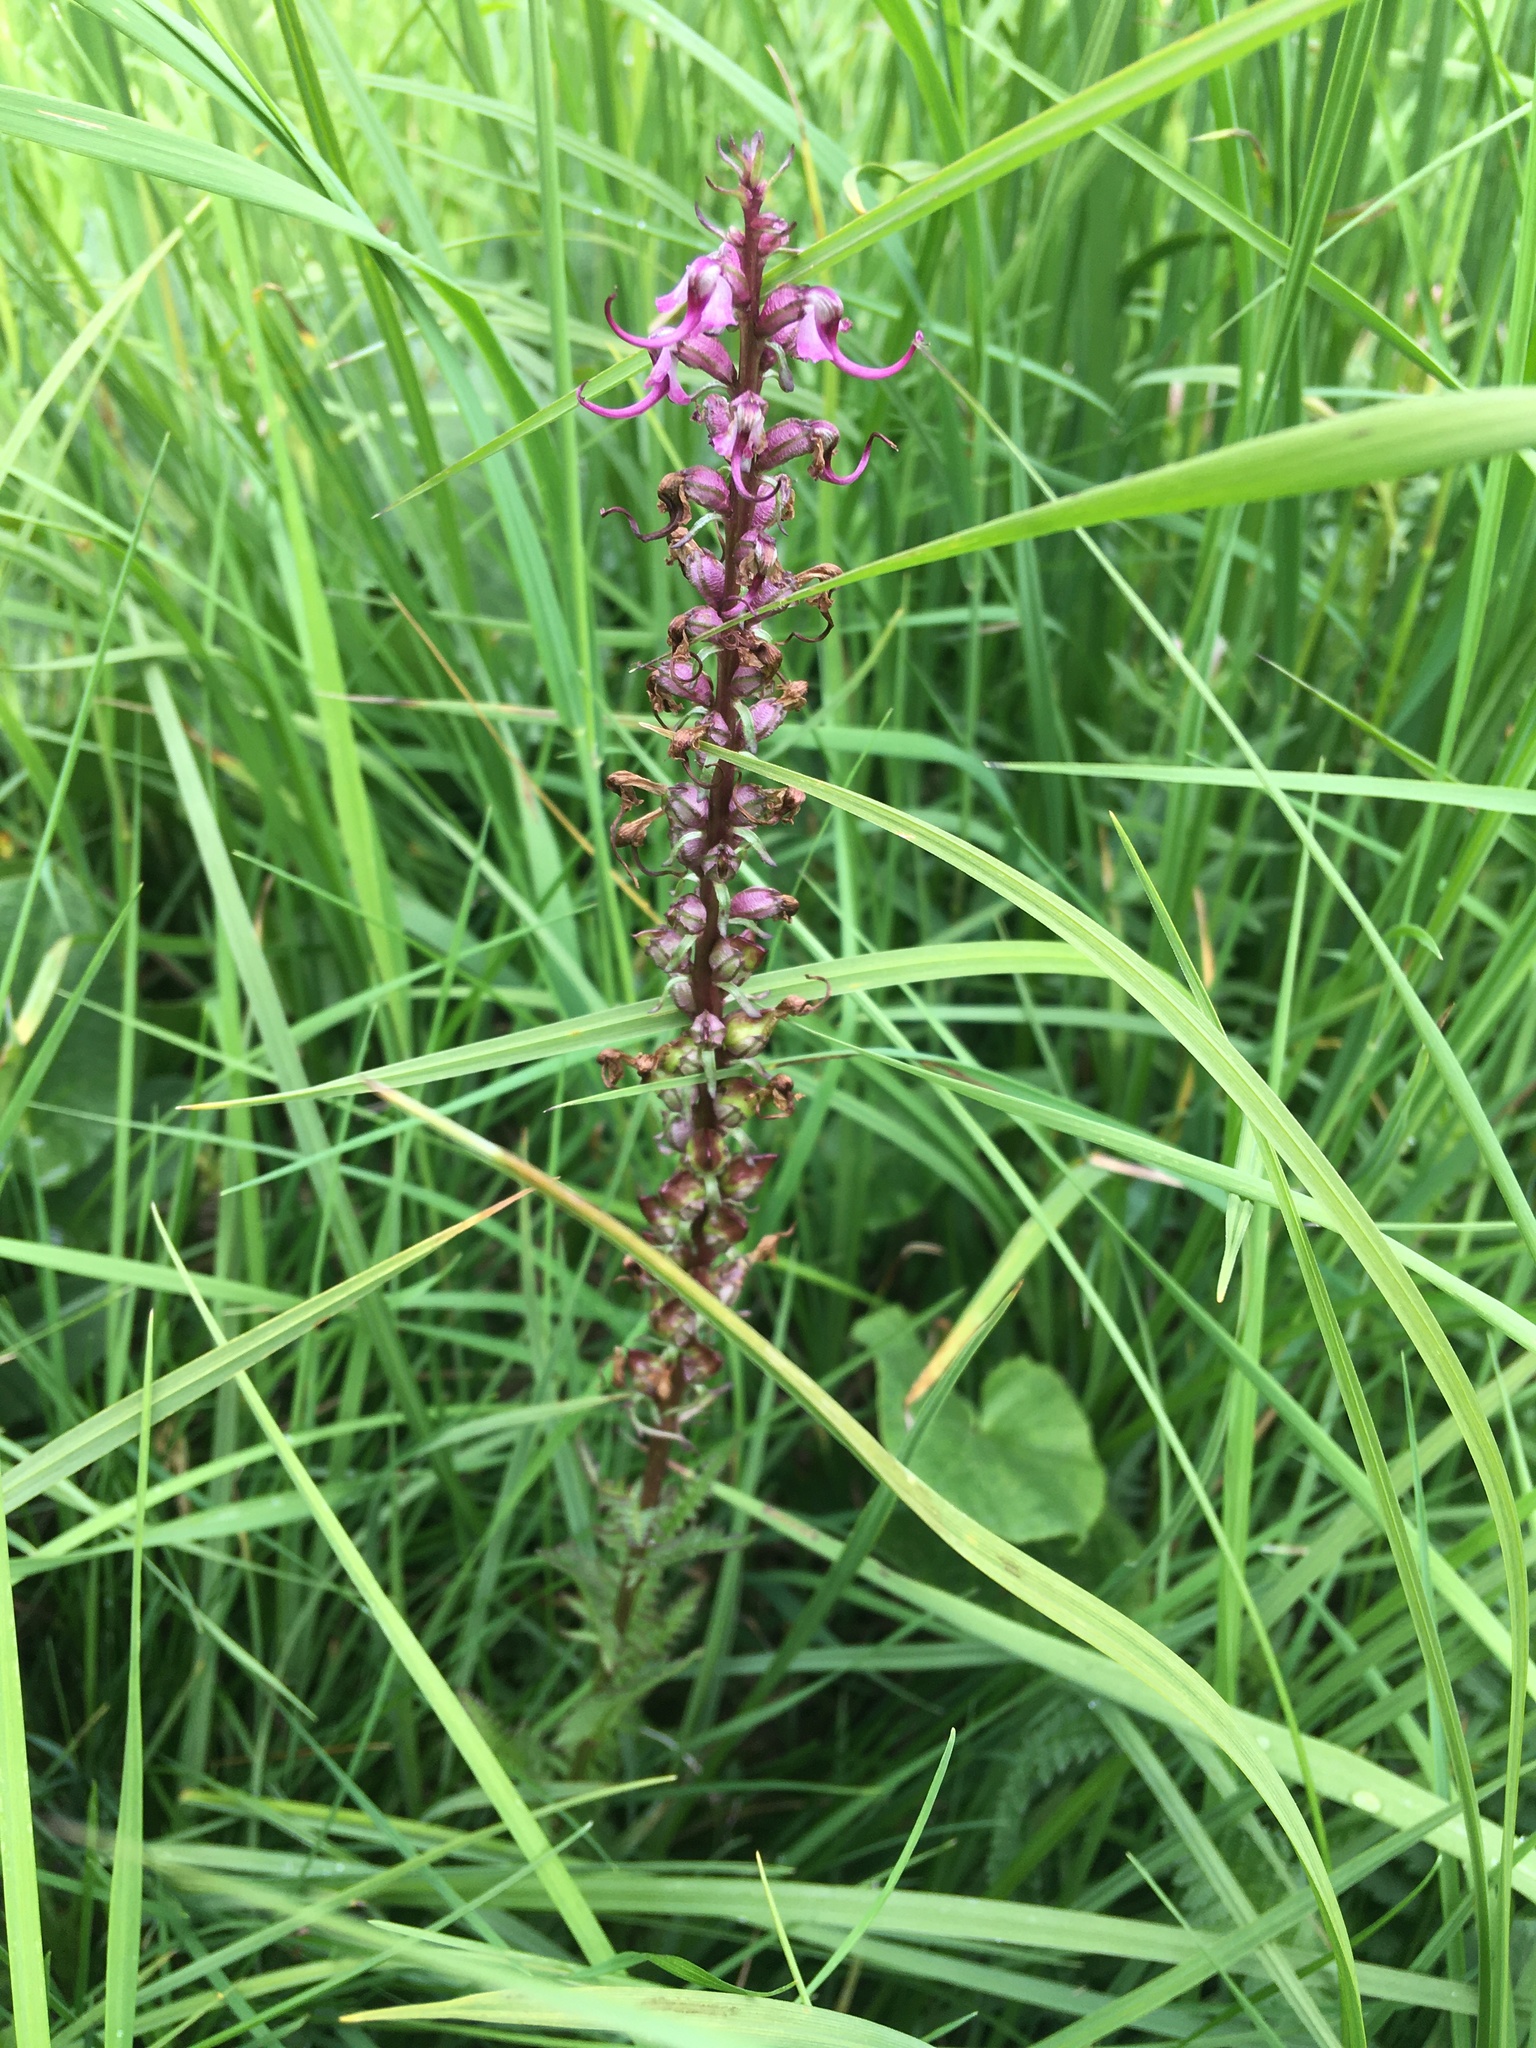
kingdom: Plantae
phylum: Tracheophyta
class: Magnoliopsida
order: Lamiales
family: Orobanchaceae
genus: Pedicularis
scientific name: Pedicularis groenlandica
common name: Elephant's-head
